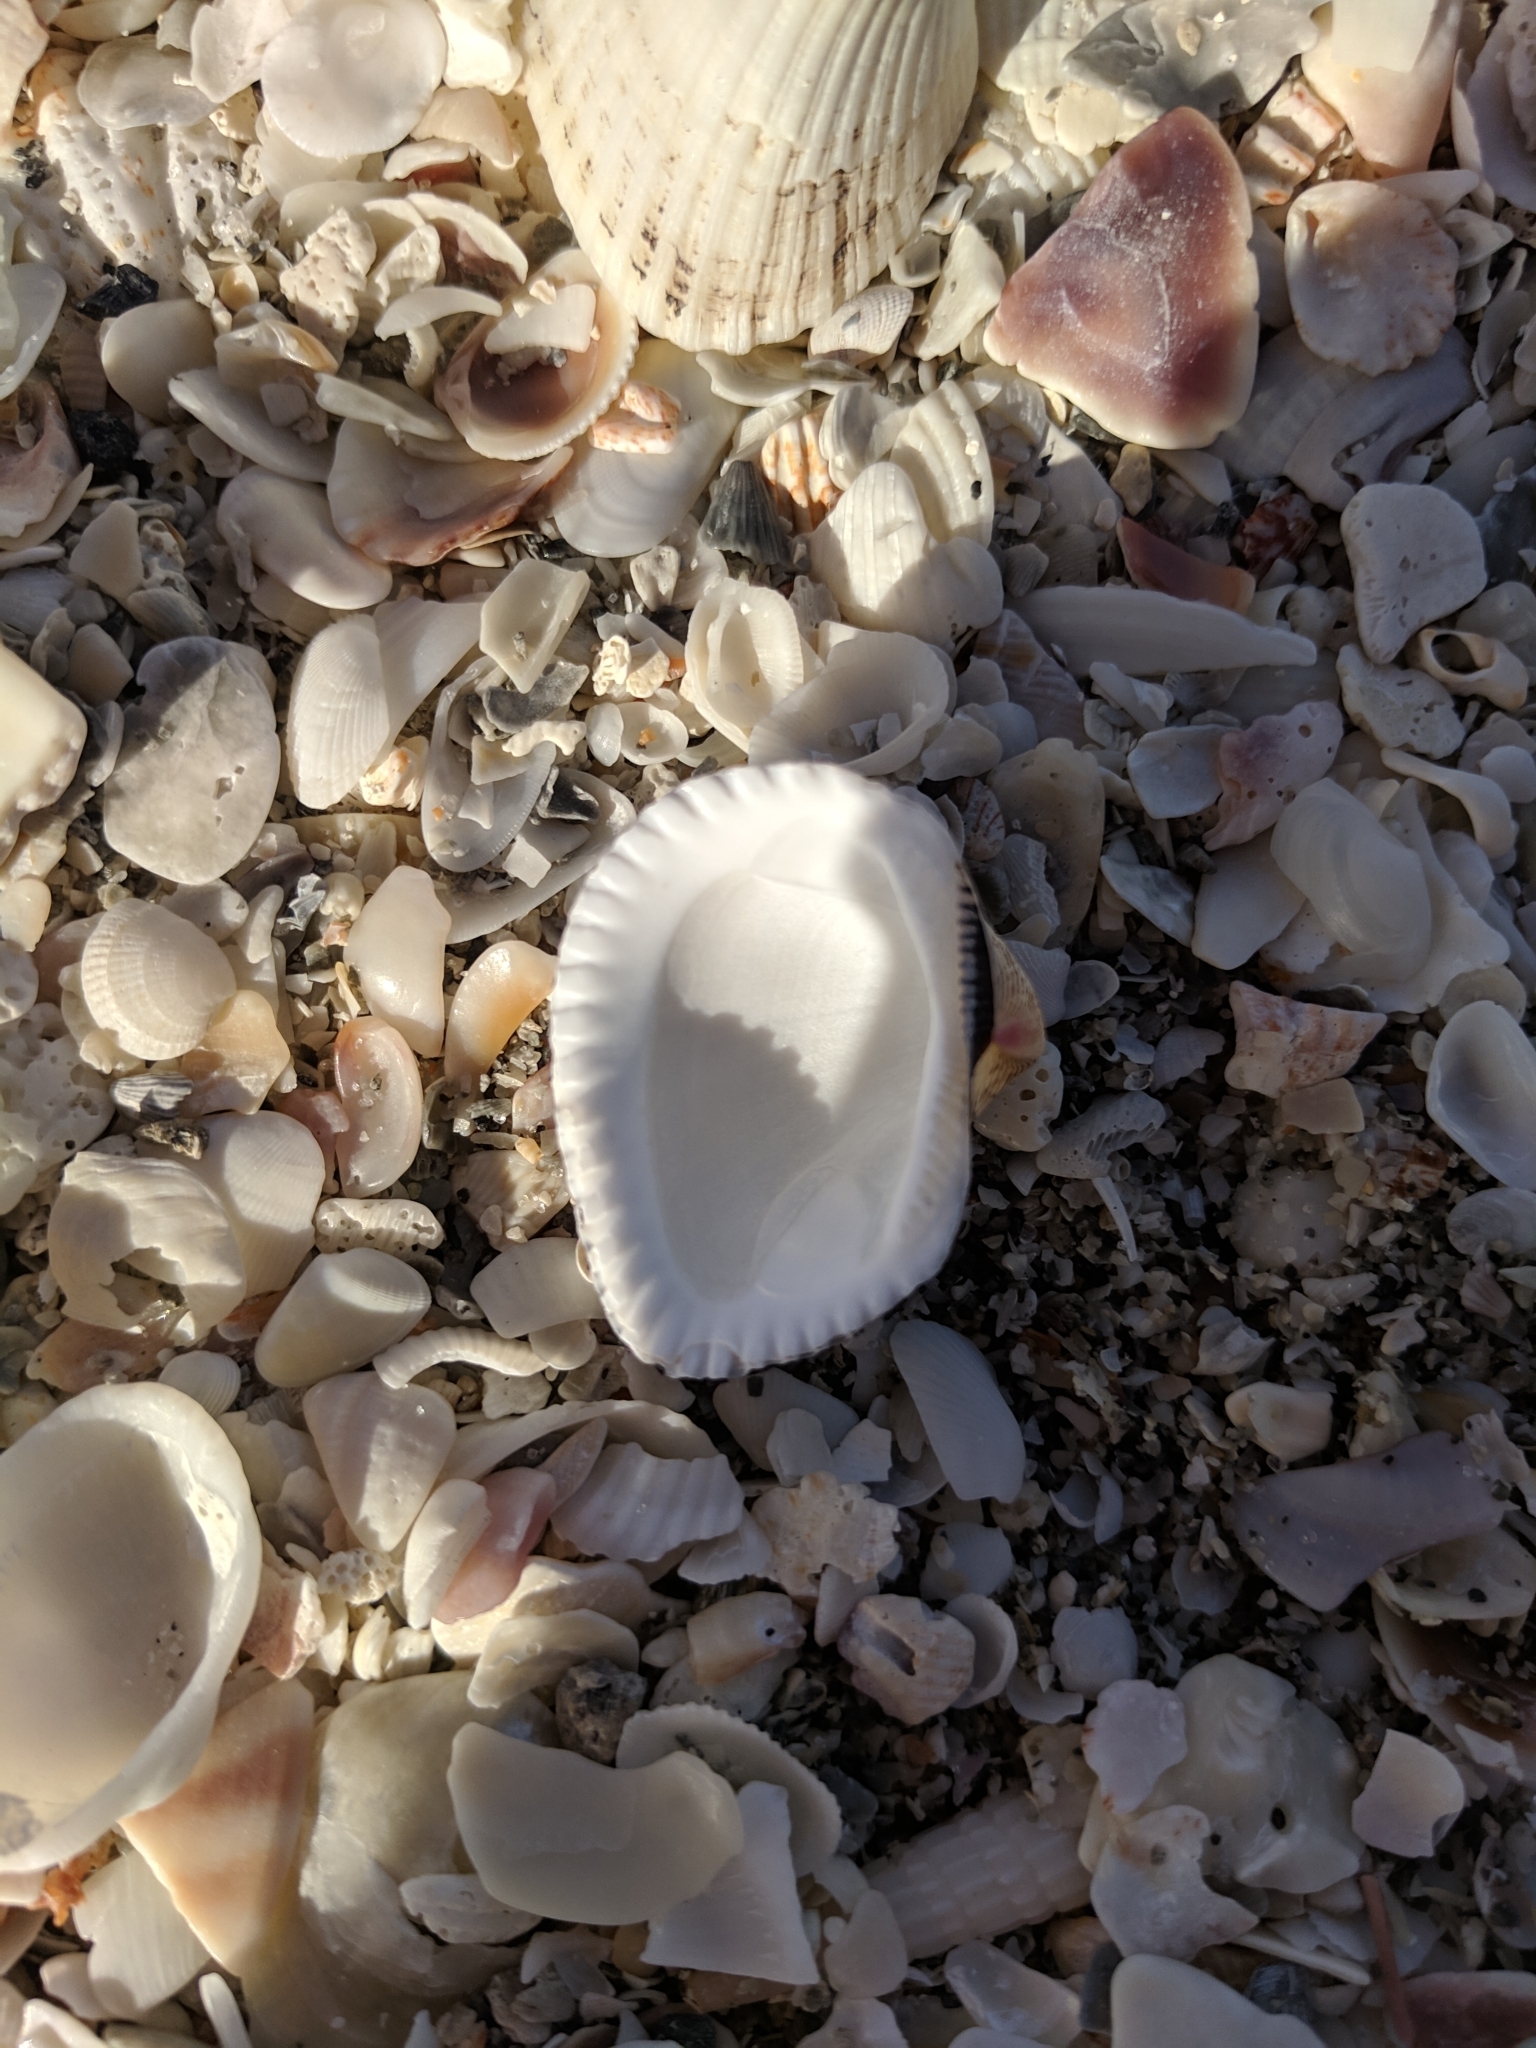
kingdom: Animalia
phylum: Mollusca
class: Bivalvia
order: Arcida
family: Noetiidae
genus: Noetia
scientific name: Noetia ponderosa
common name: Ponderous ark
